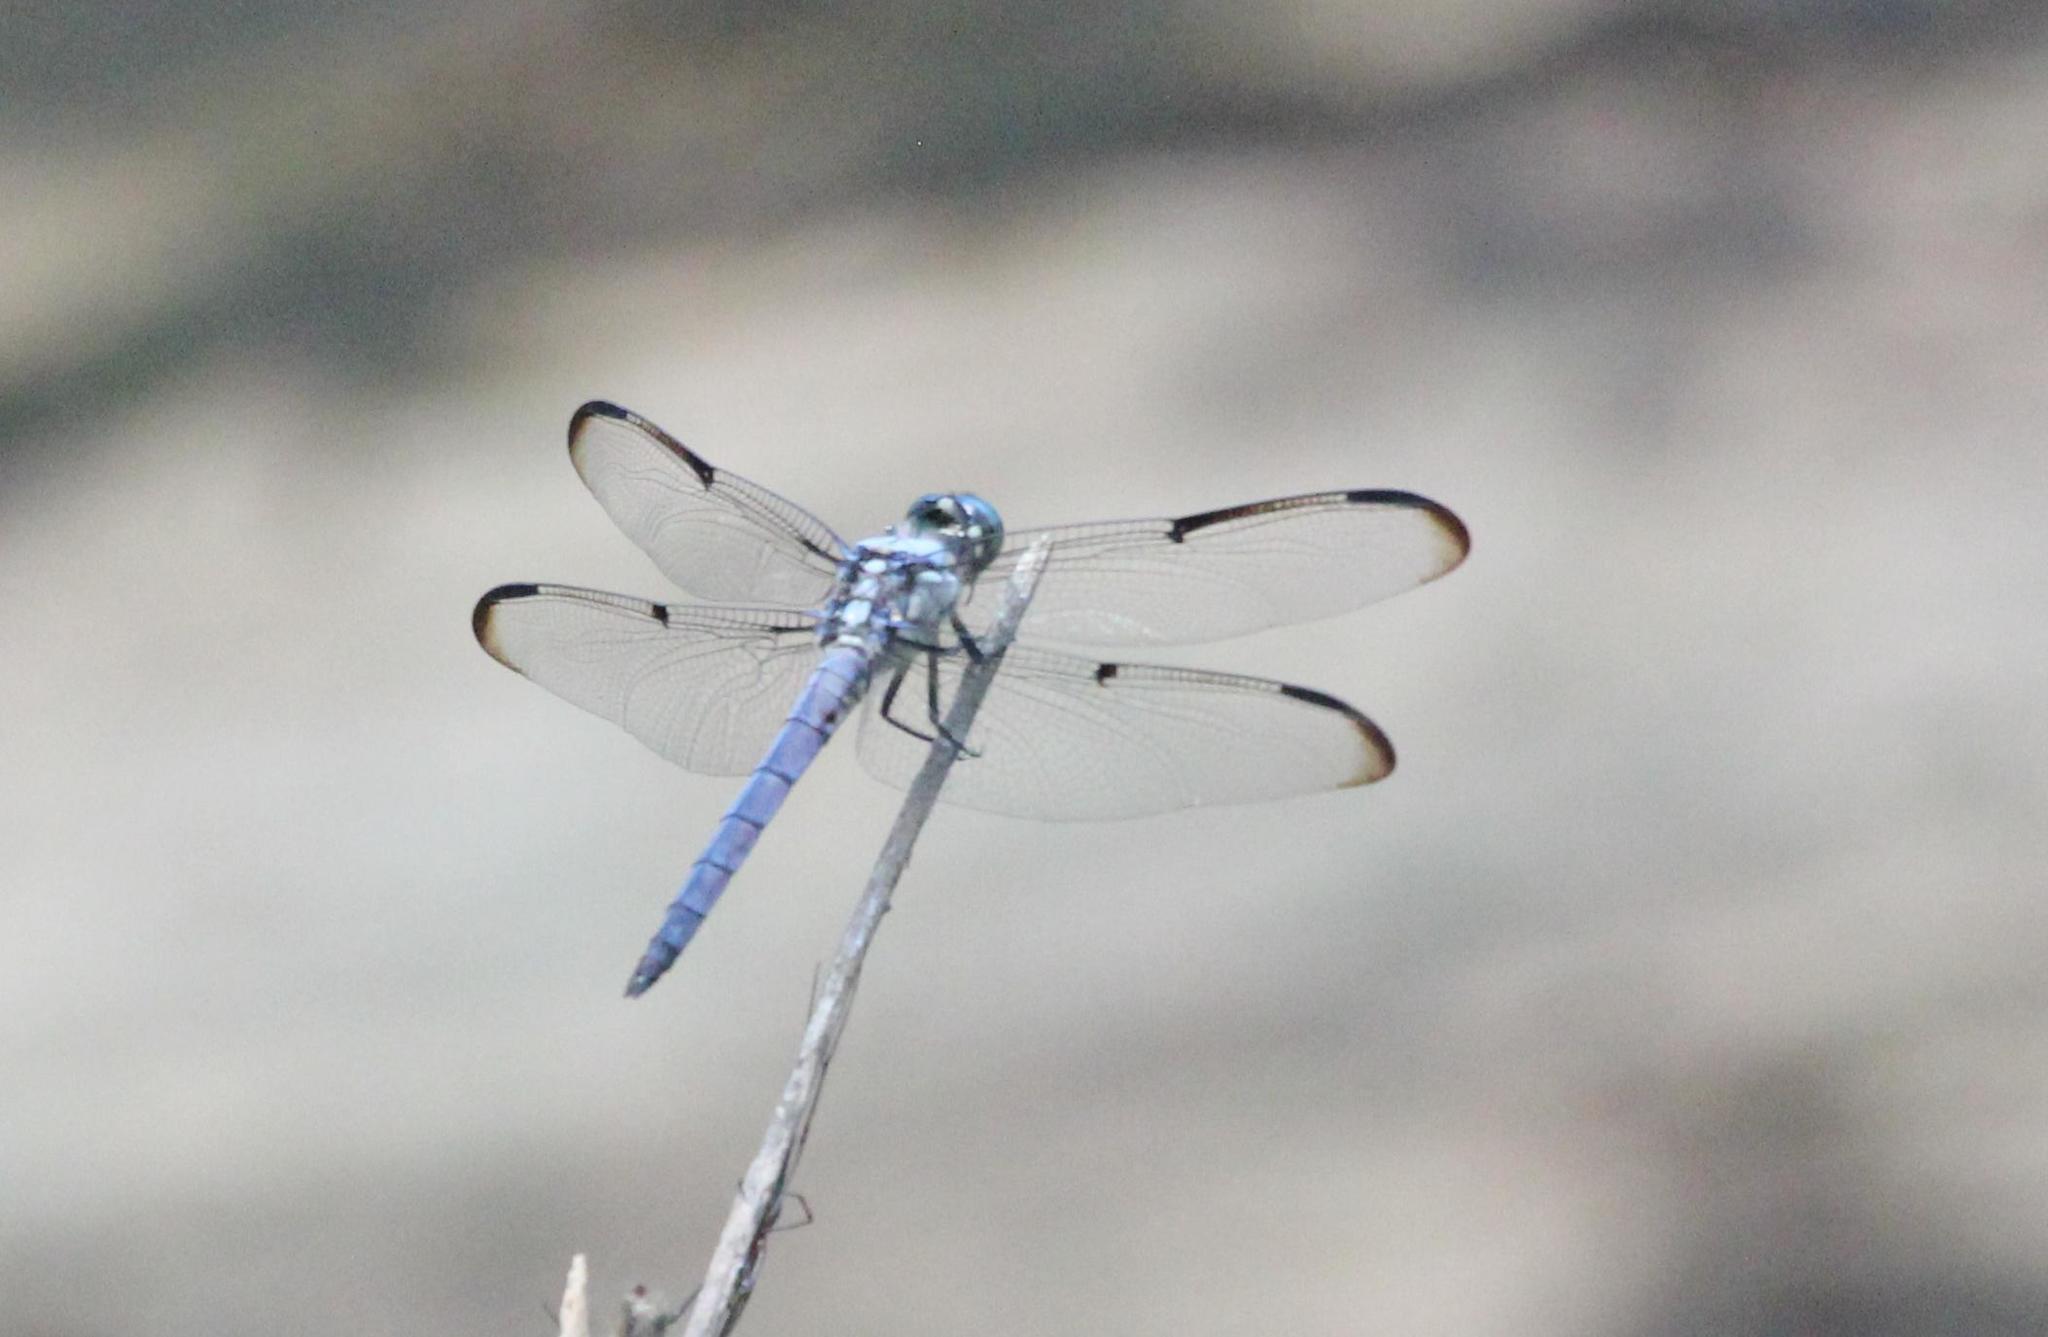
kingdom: Animalia
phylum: Arthropoda
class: Insecta
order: Odonata
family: Libellulidae
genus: Libellula
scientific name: Libellula vibrans
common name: Great blue skimmer
